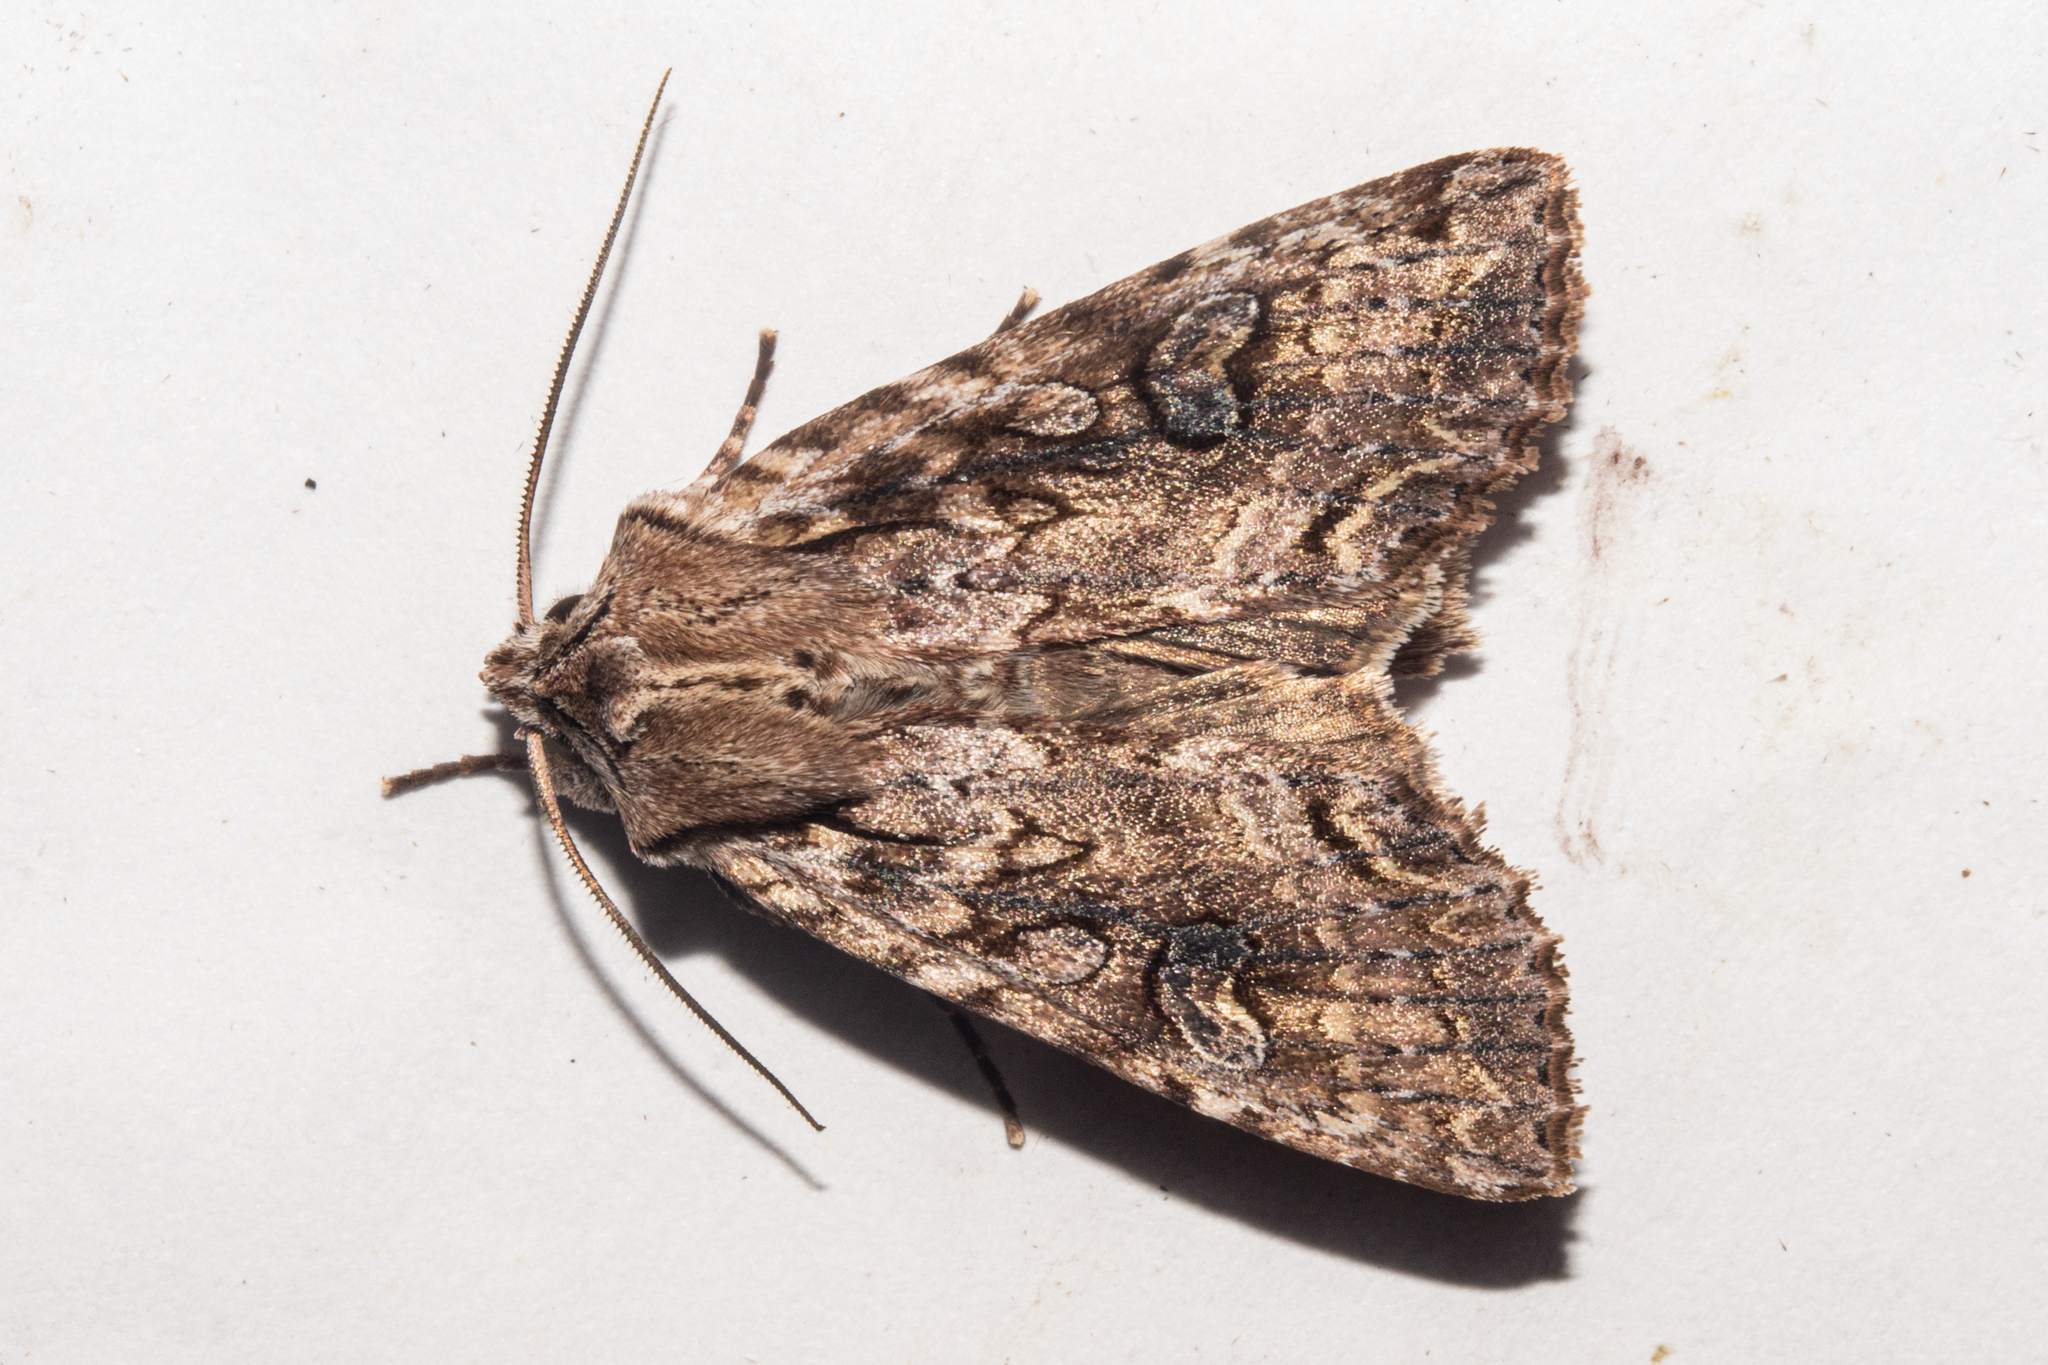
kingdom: Animalia
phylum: Arthropoda
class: Insecta
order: Lepidoptera
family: Noctuidae
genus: Ichneutica
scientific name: Ichneutica lindsayorum
